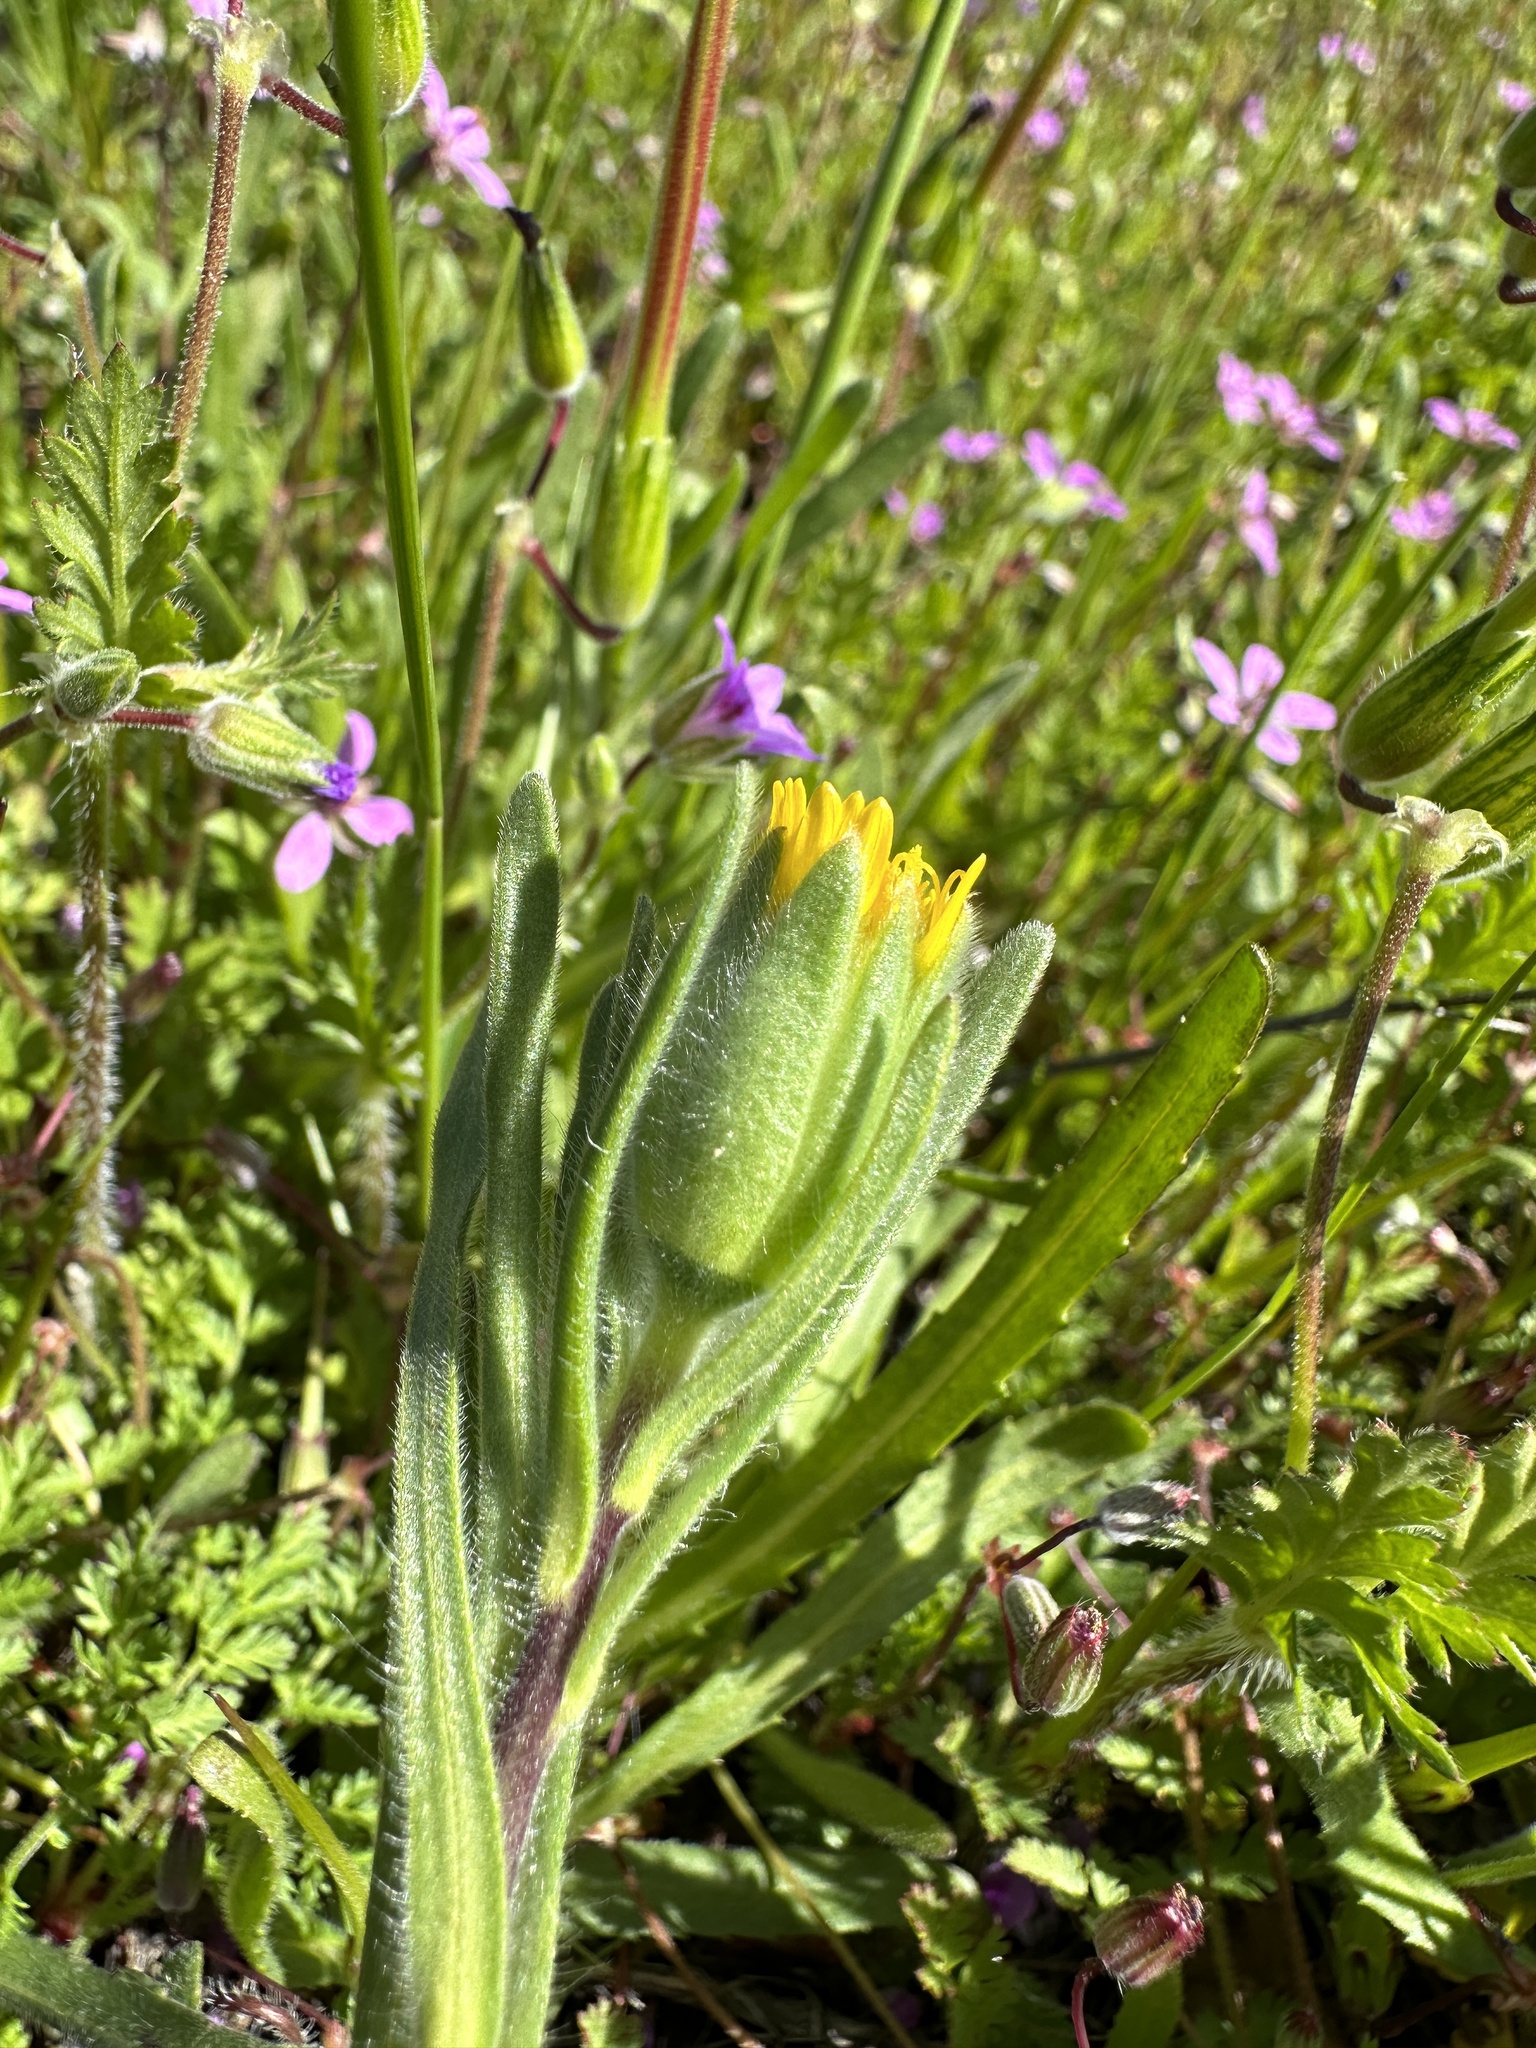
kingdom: Plantae
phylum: Tracheophyta
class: Magnoliopsida
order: Asterales
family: Asteraceae
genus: Achyrachaena
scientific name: Achyrachaena mollis
